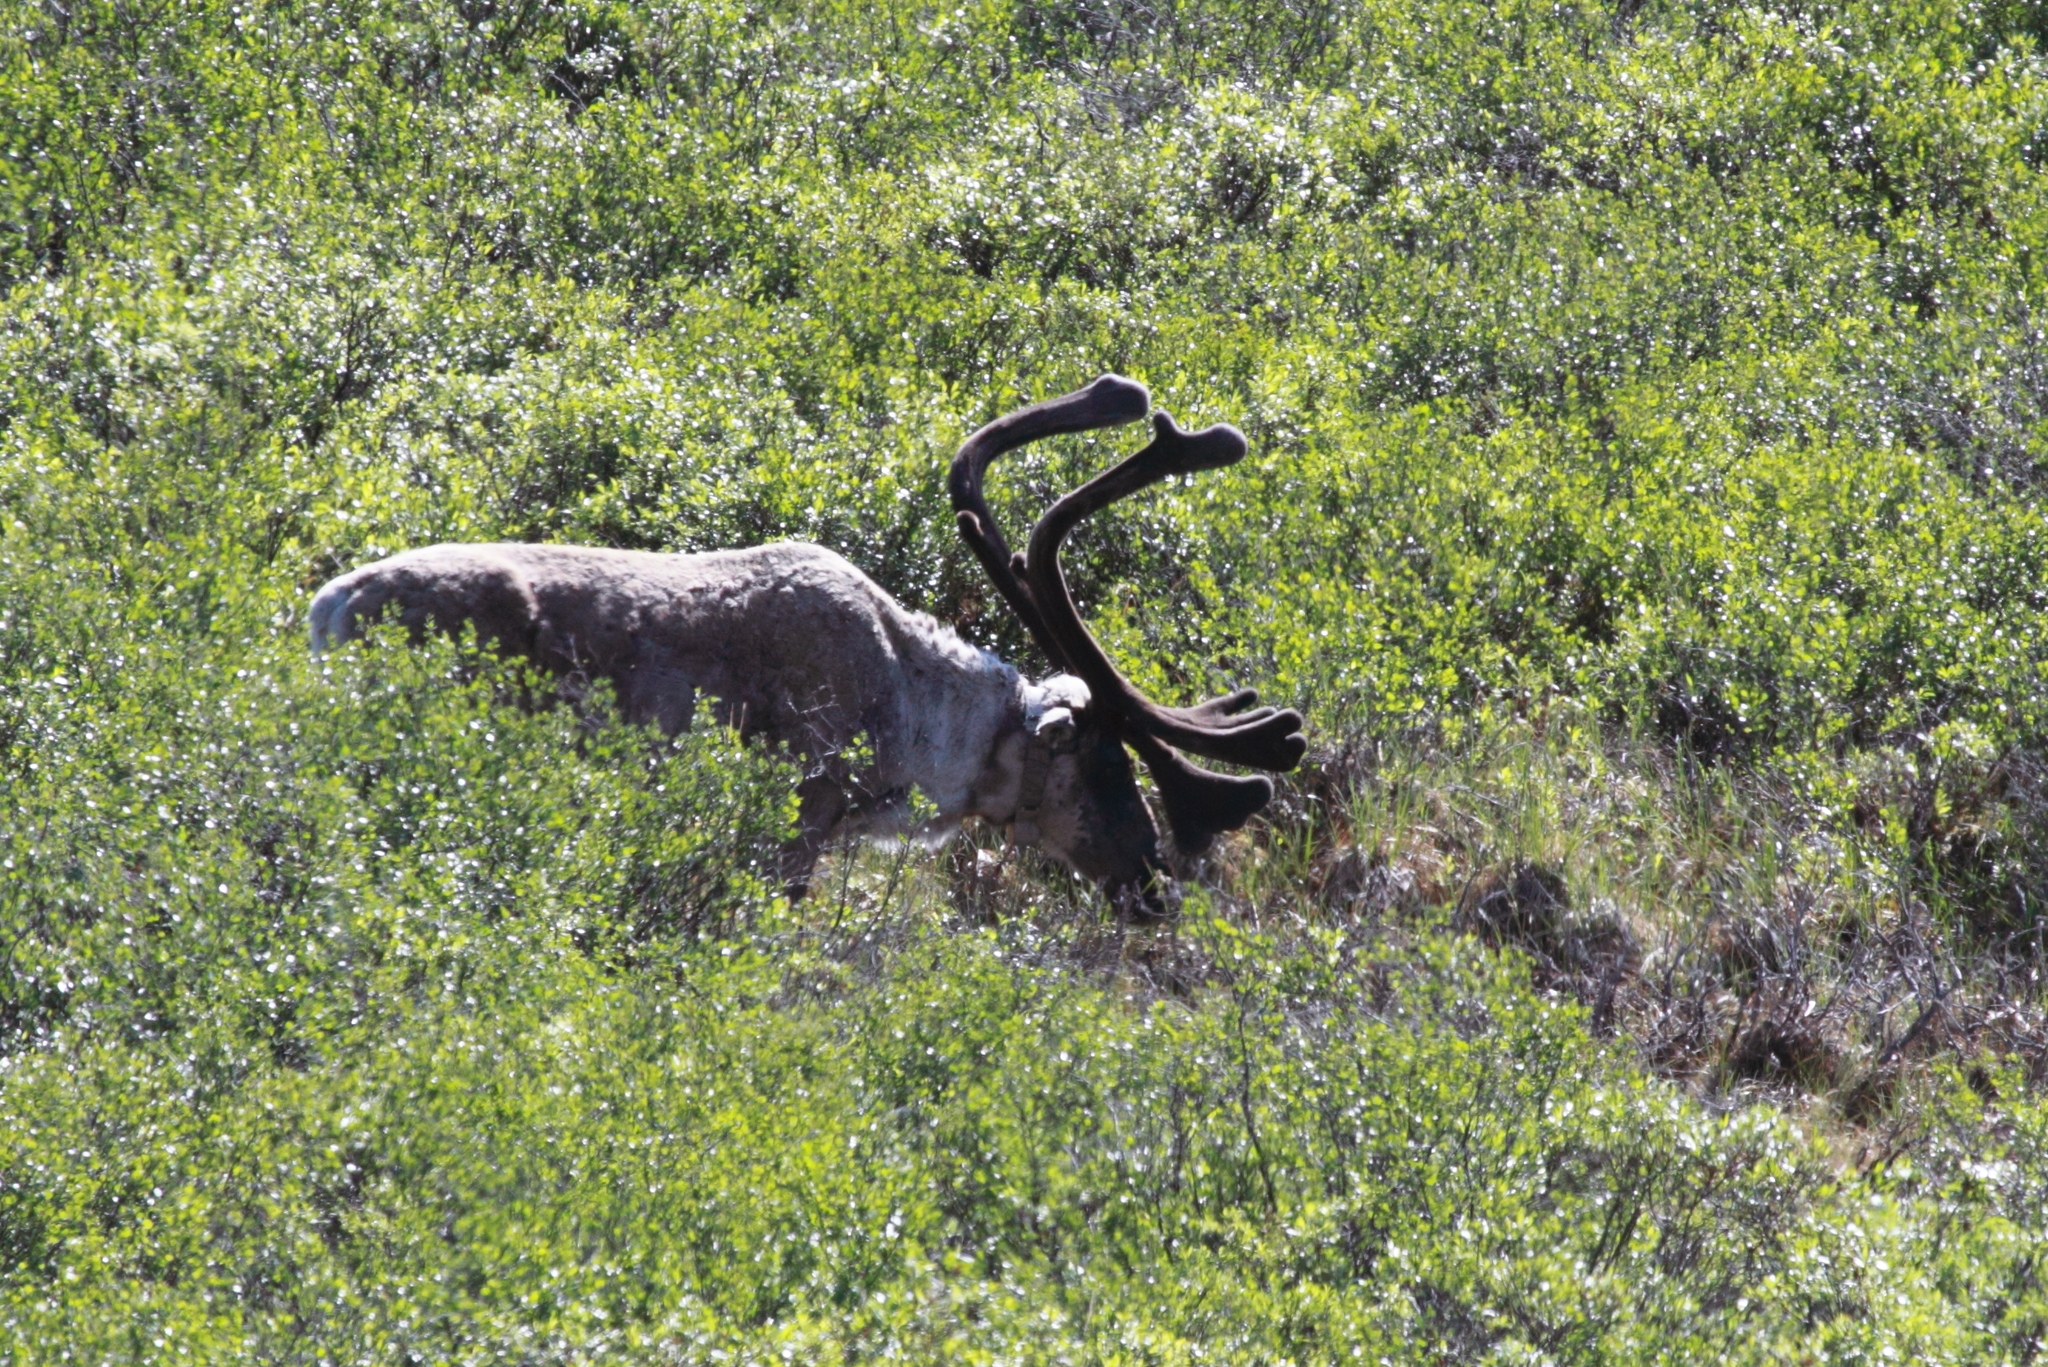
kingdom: Animalia
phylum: Chordata
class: Mammalia
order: Artiodactyla
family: Cervidae
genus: Rangifer
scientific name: Rangifer tarandus
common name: Reindeer
